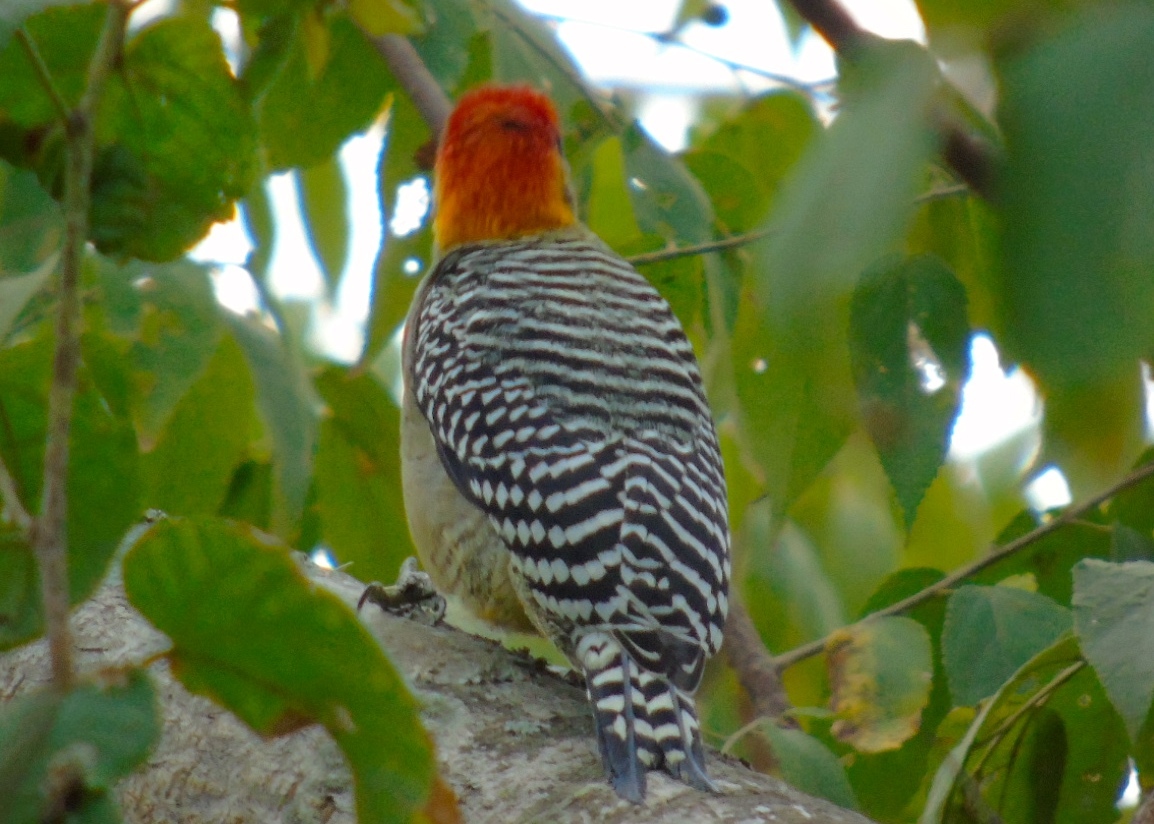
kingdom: Animalia
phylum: Chordata
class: Aves
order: Piciformes
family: Picidae
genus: Melanerpes
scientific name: Melanerpes chrysogenys
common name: Golden-cheeked woodpecker
